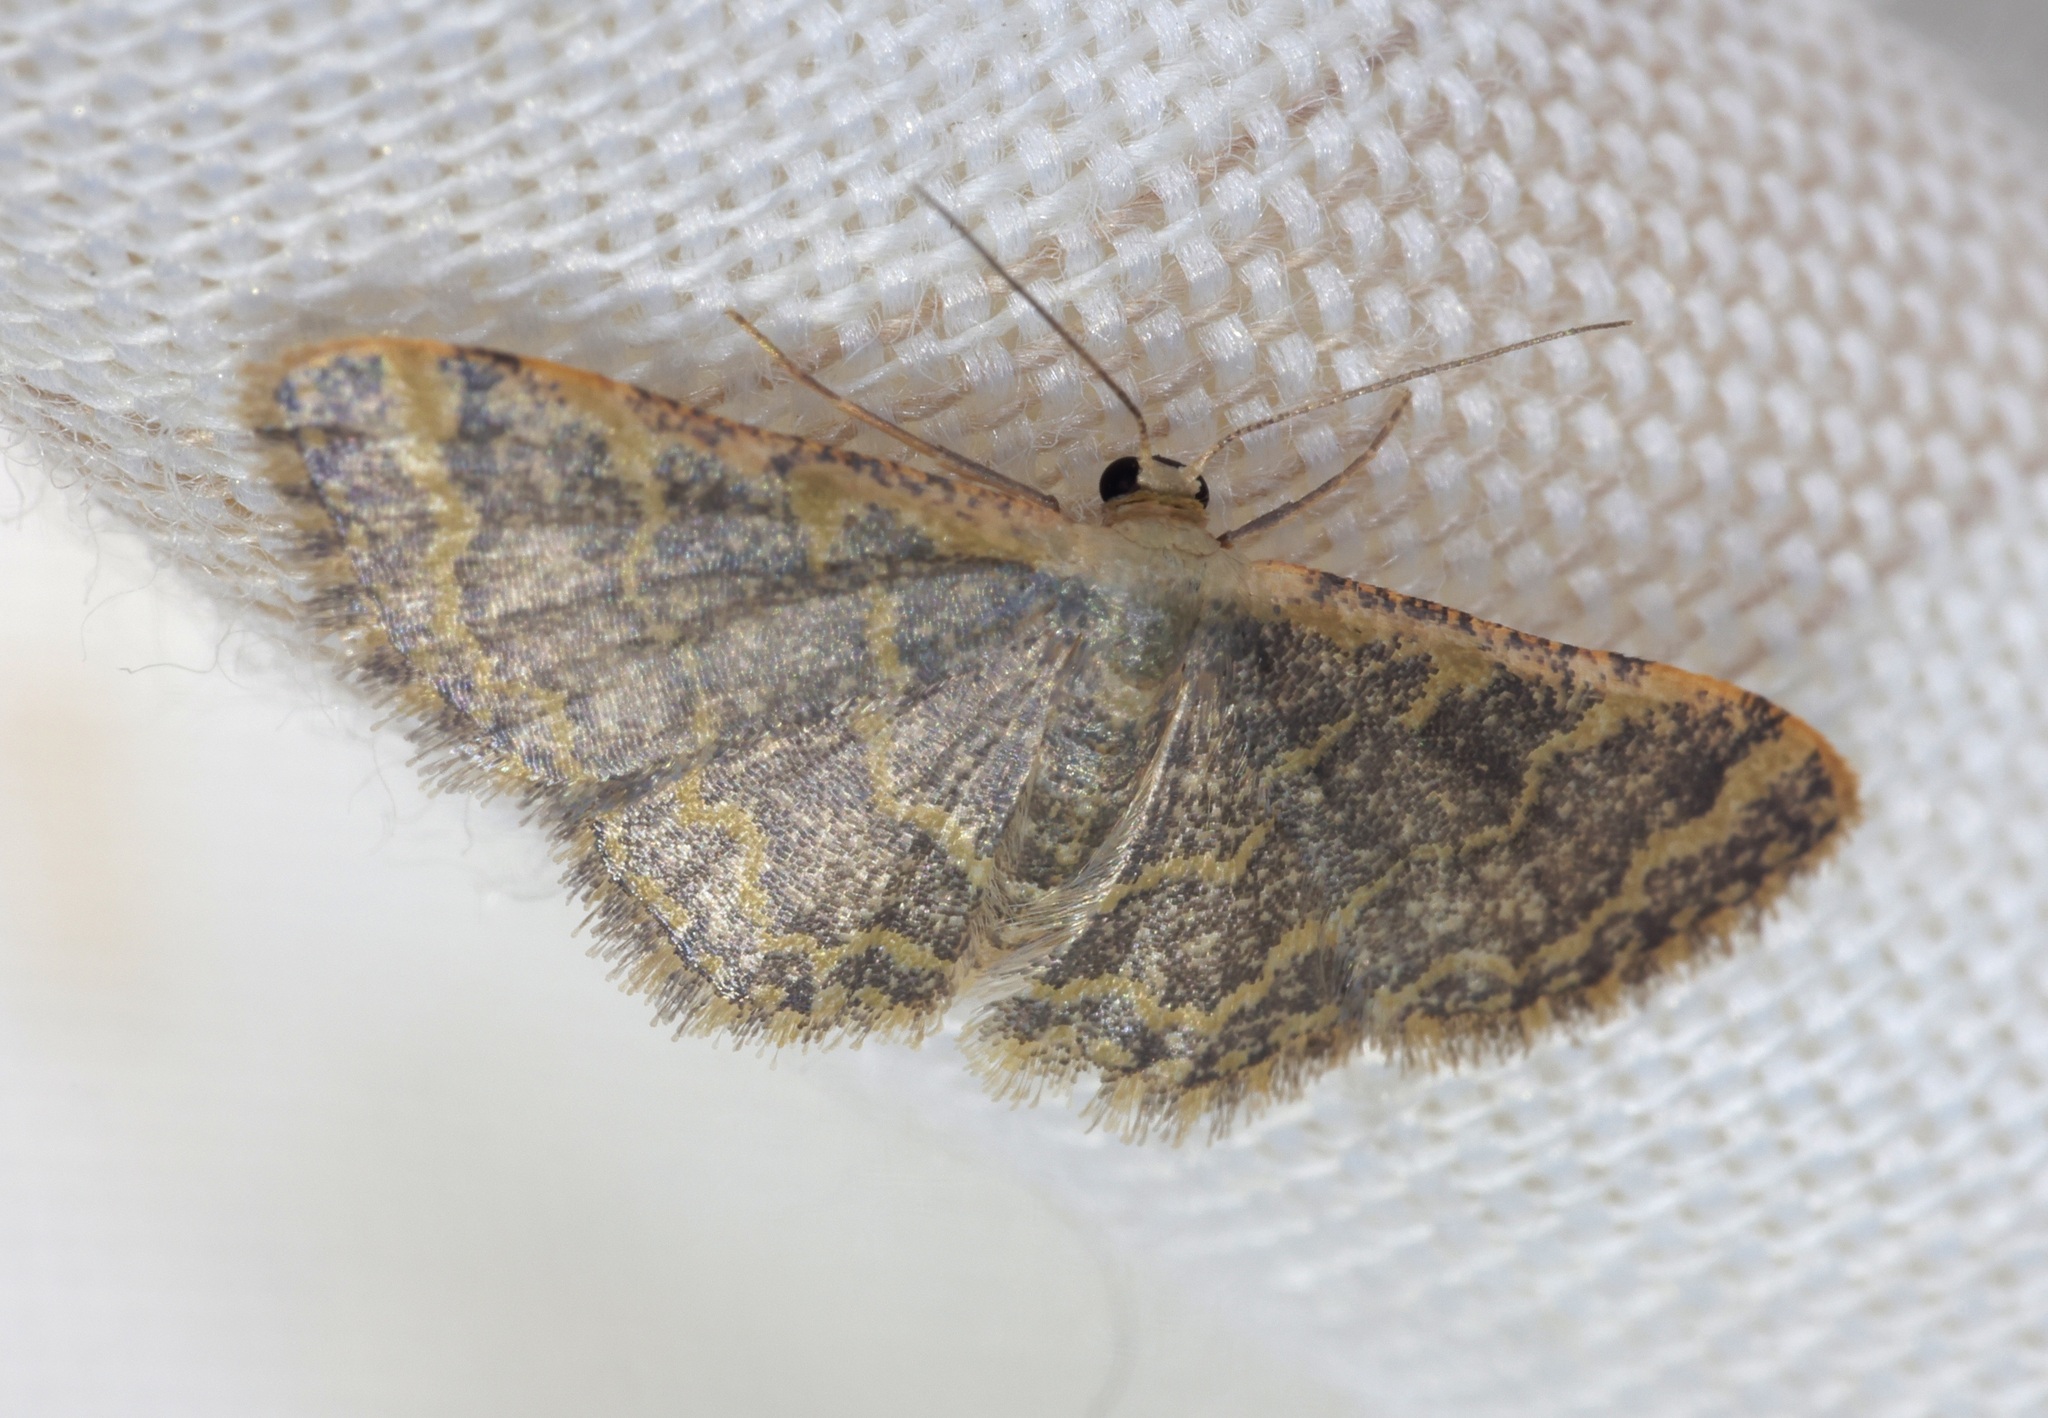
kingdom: Animalia
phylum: Arthropoda
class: Insecta
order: Lepidoptera
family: Geometridae
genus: Idaea
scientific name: Idaea costiguttata
